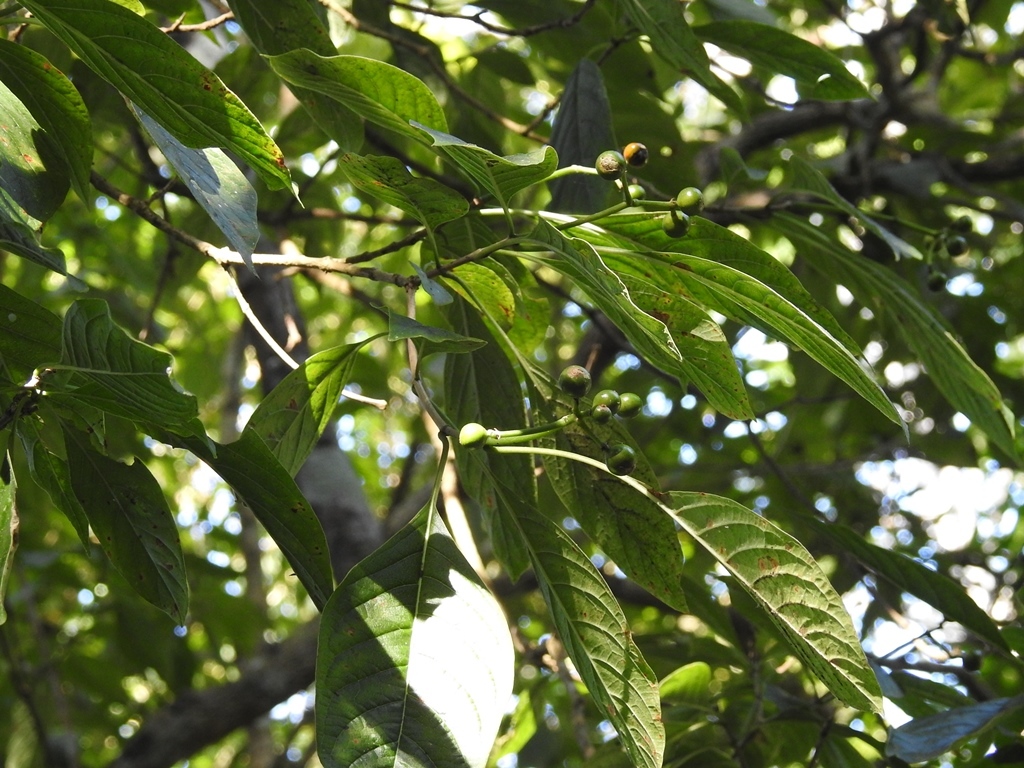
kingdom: Plantae
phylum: Tracheophyta
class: Magnoliopsida
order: Gentianales
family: Rubiaceae
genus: Coussarea
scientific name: Coussarea chiapensis
